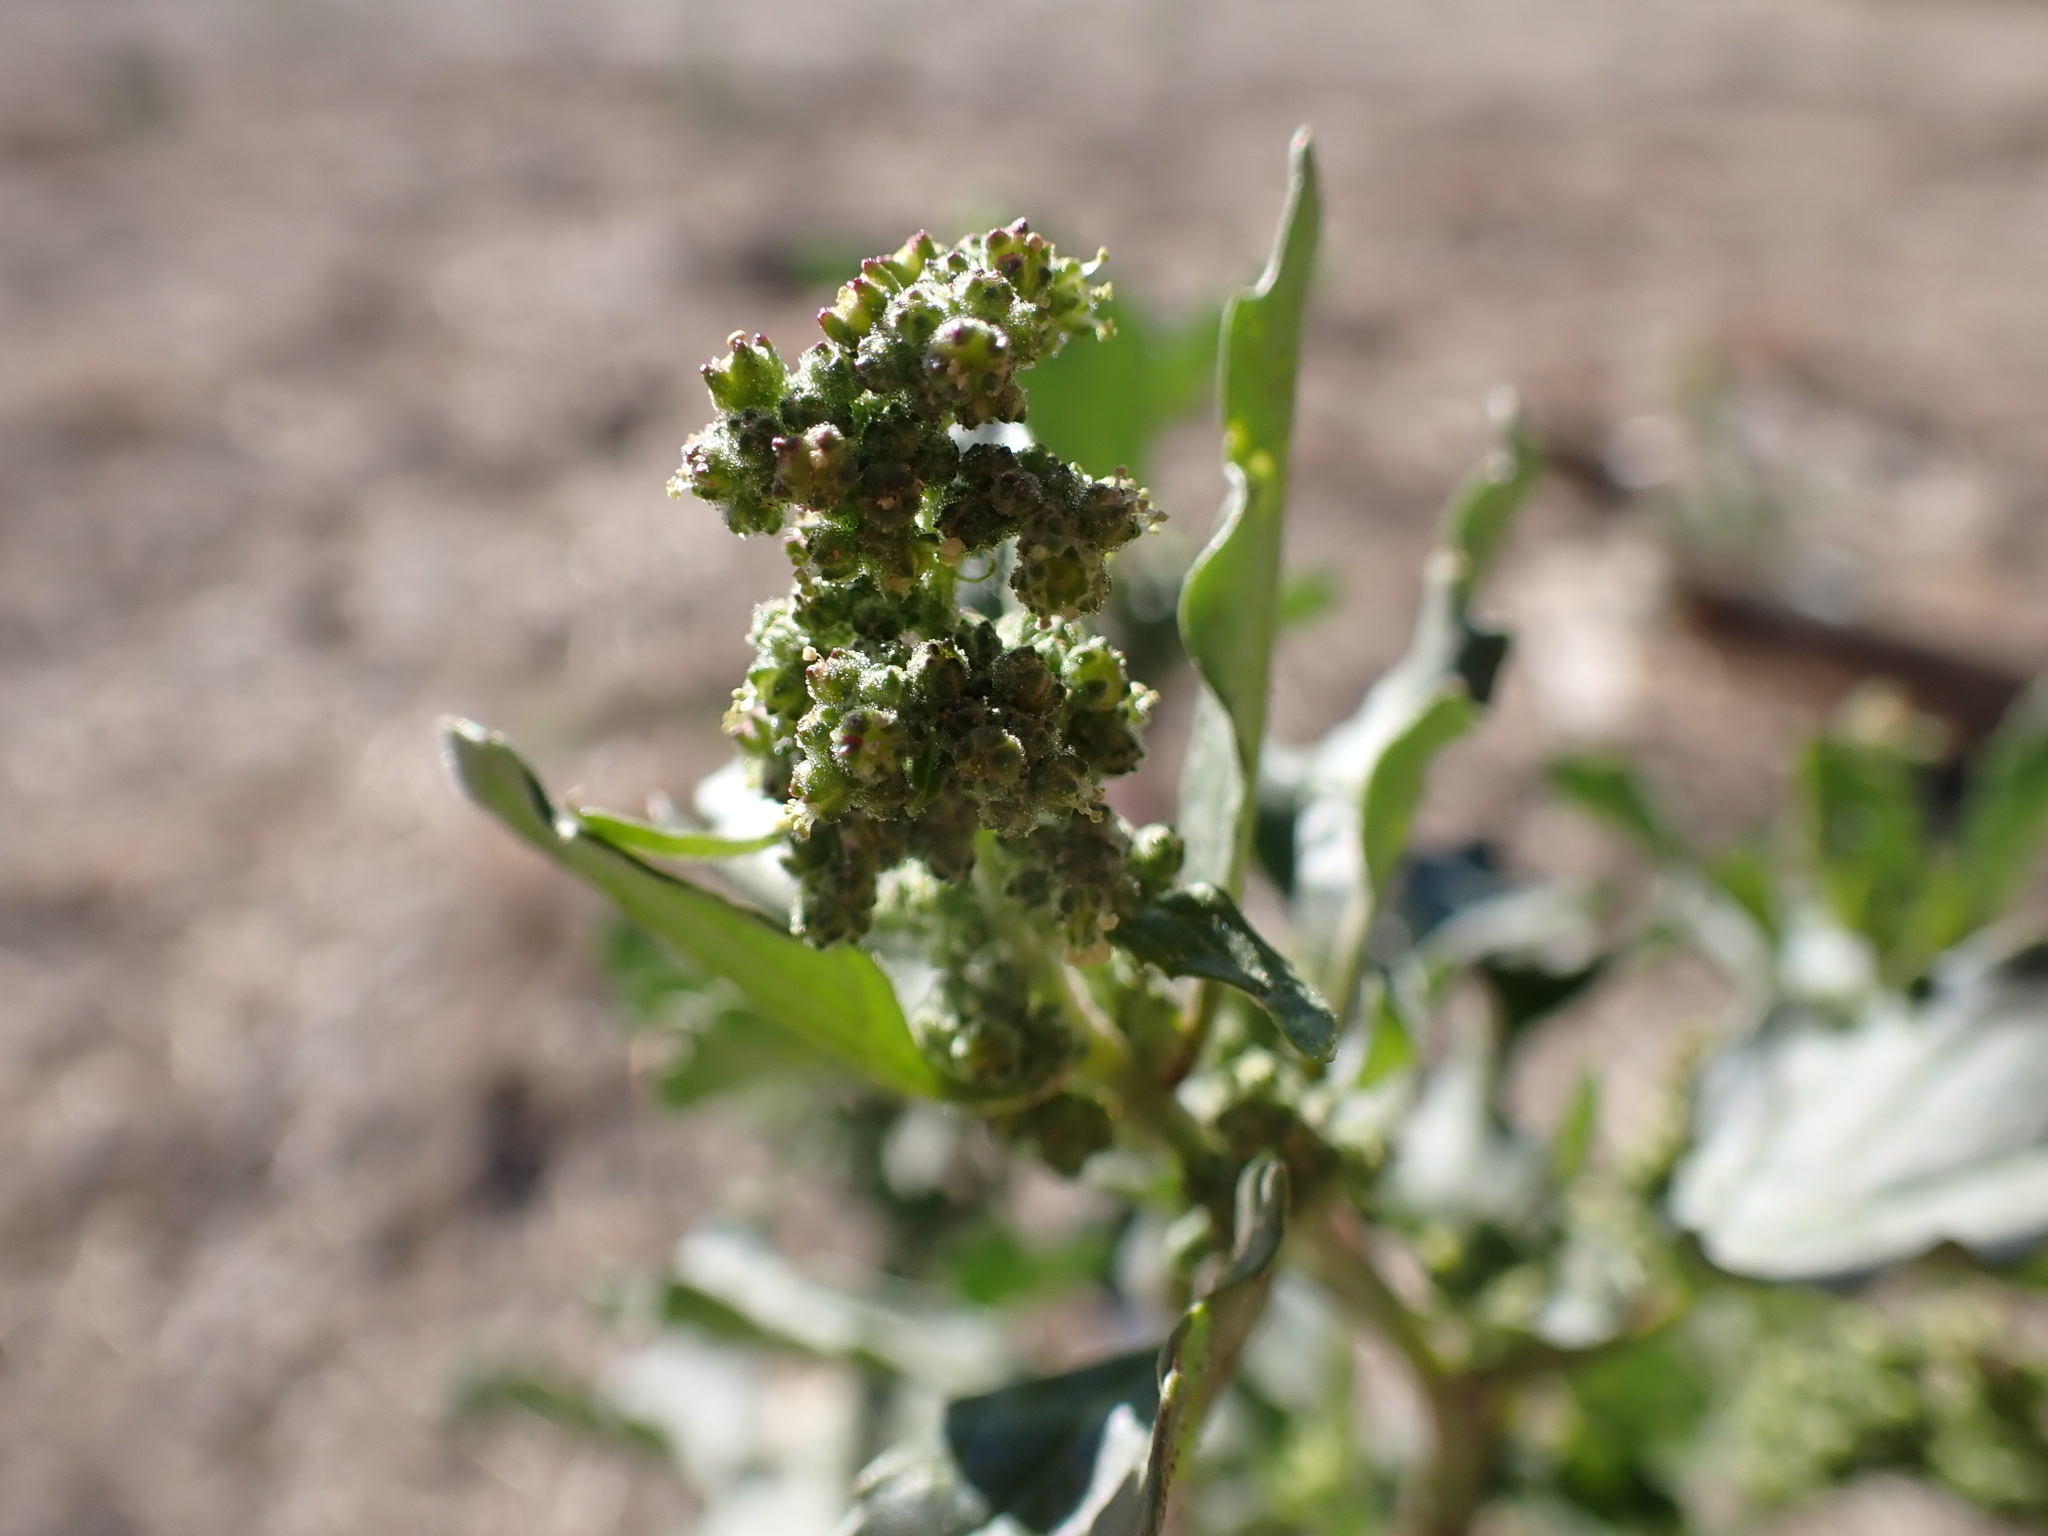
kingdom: Plantae
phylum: Tracheophyta
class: Magnoliopsida
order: Caryophyllales
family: Amaranthaceae
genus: Chenopodiastrum
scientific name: Chenopodiastrum murale
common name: Sowbane
